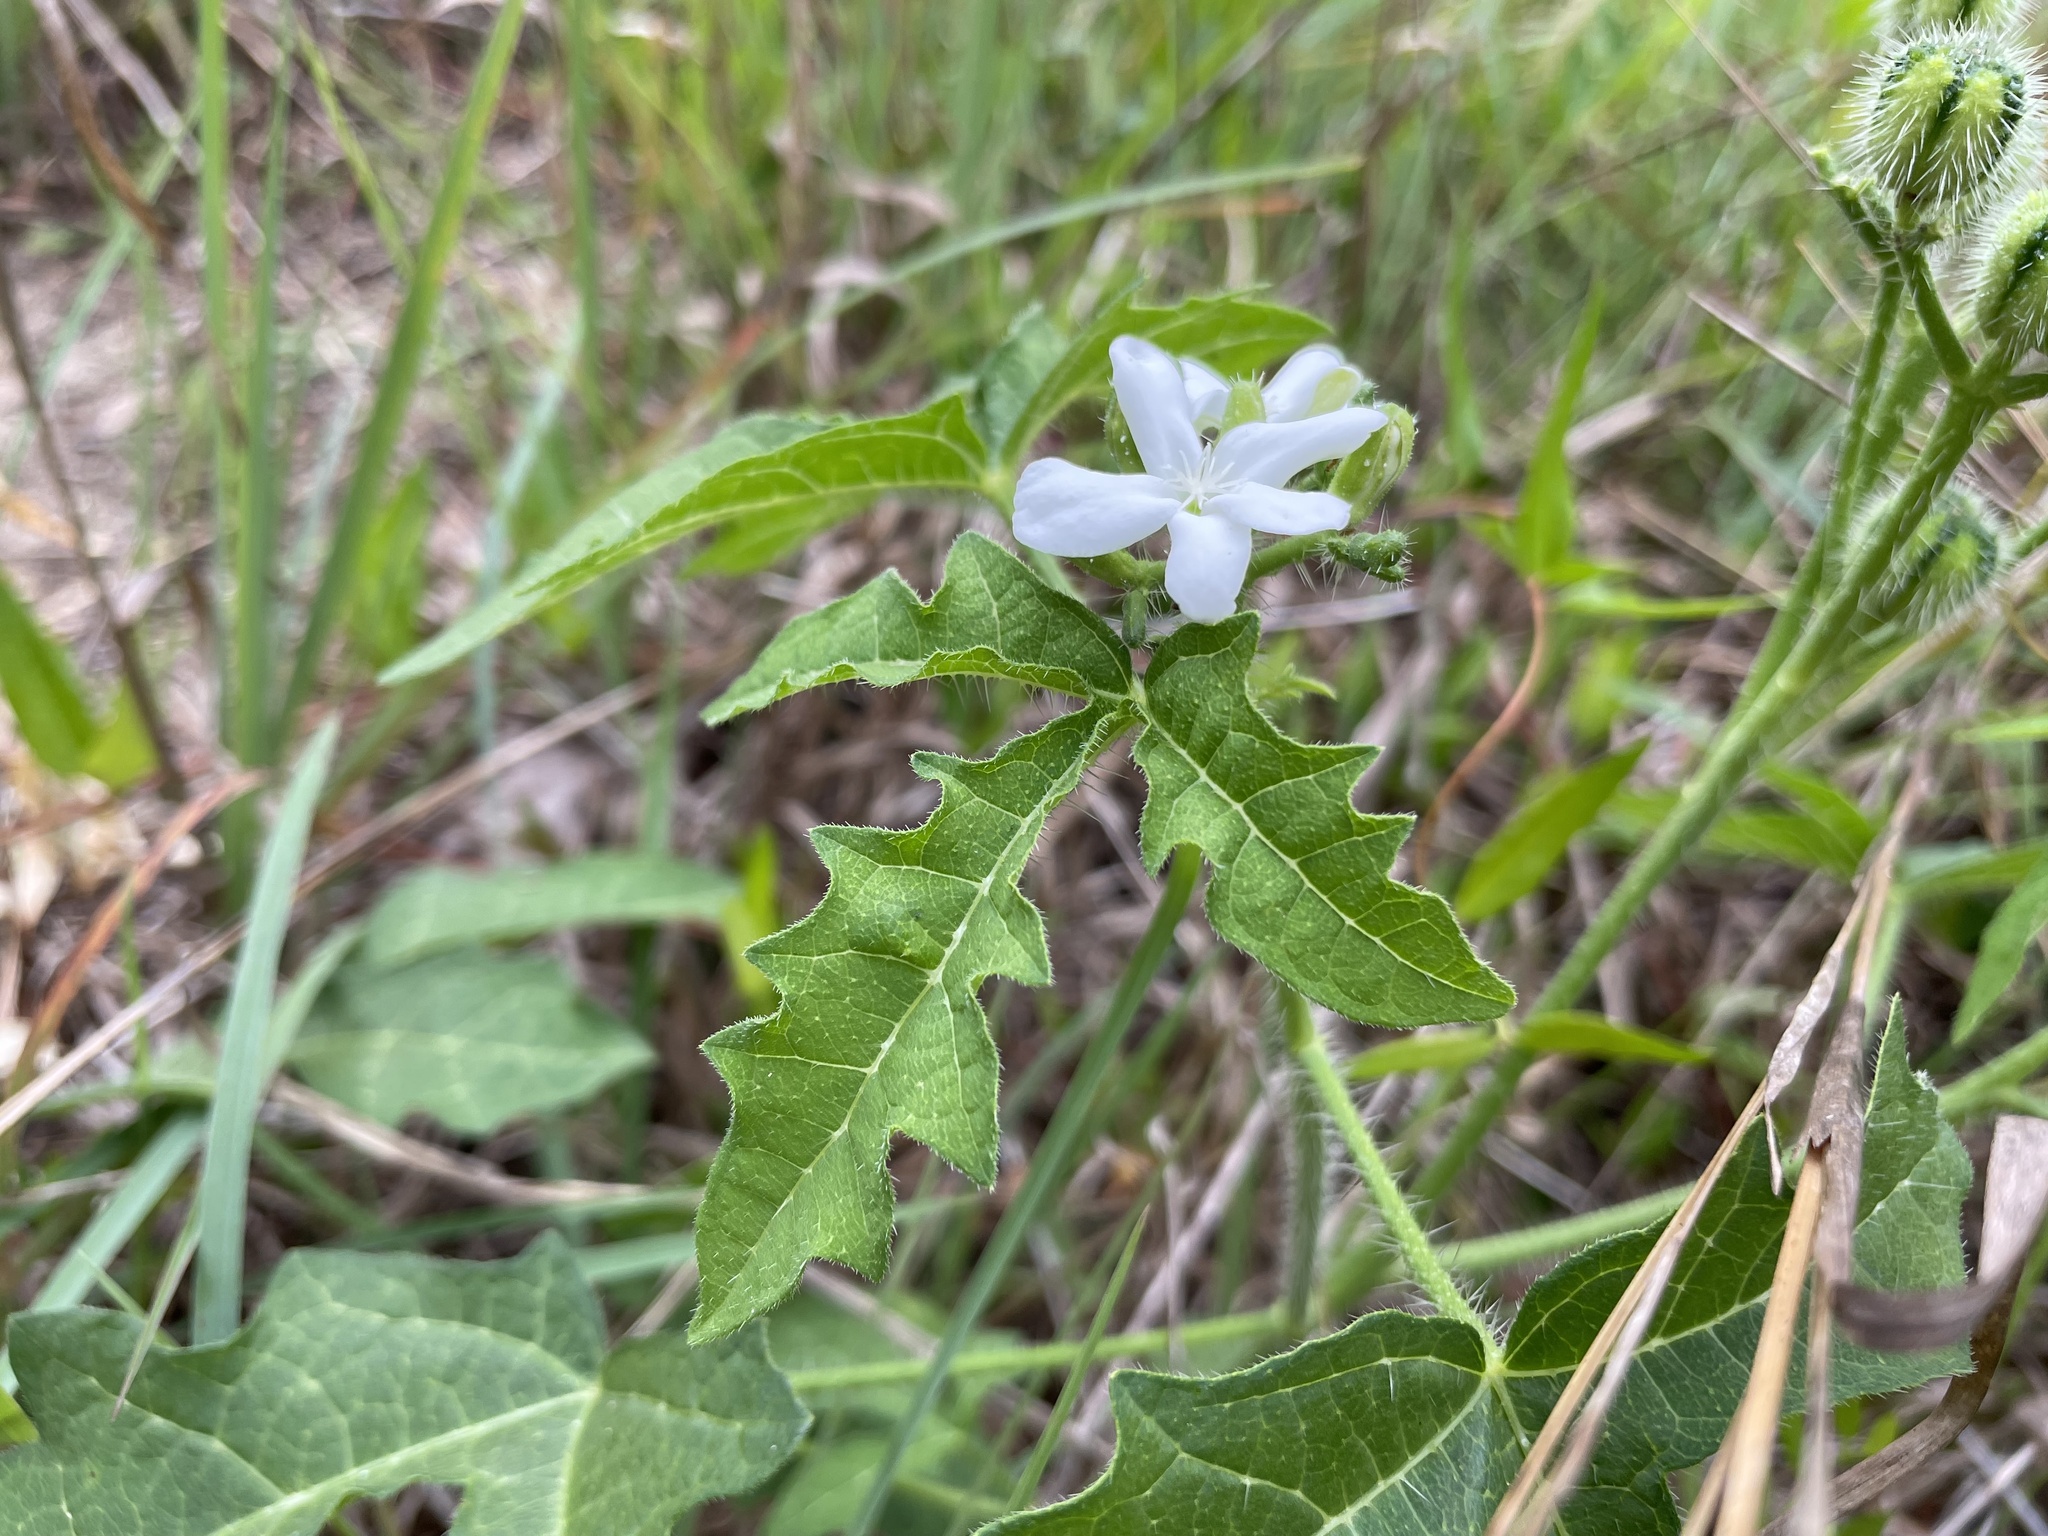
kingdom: Plantae
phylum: Tracheophyta
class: Magnoliopsida
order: Malpighiales
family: Euphorbiaceae
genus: Cnidoscolus
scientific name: Cnidoscolus stimulosus
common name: Bull-nettle
